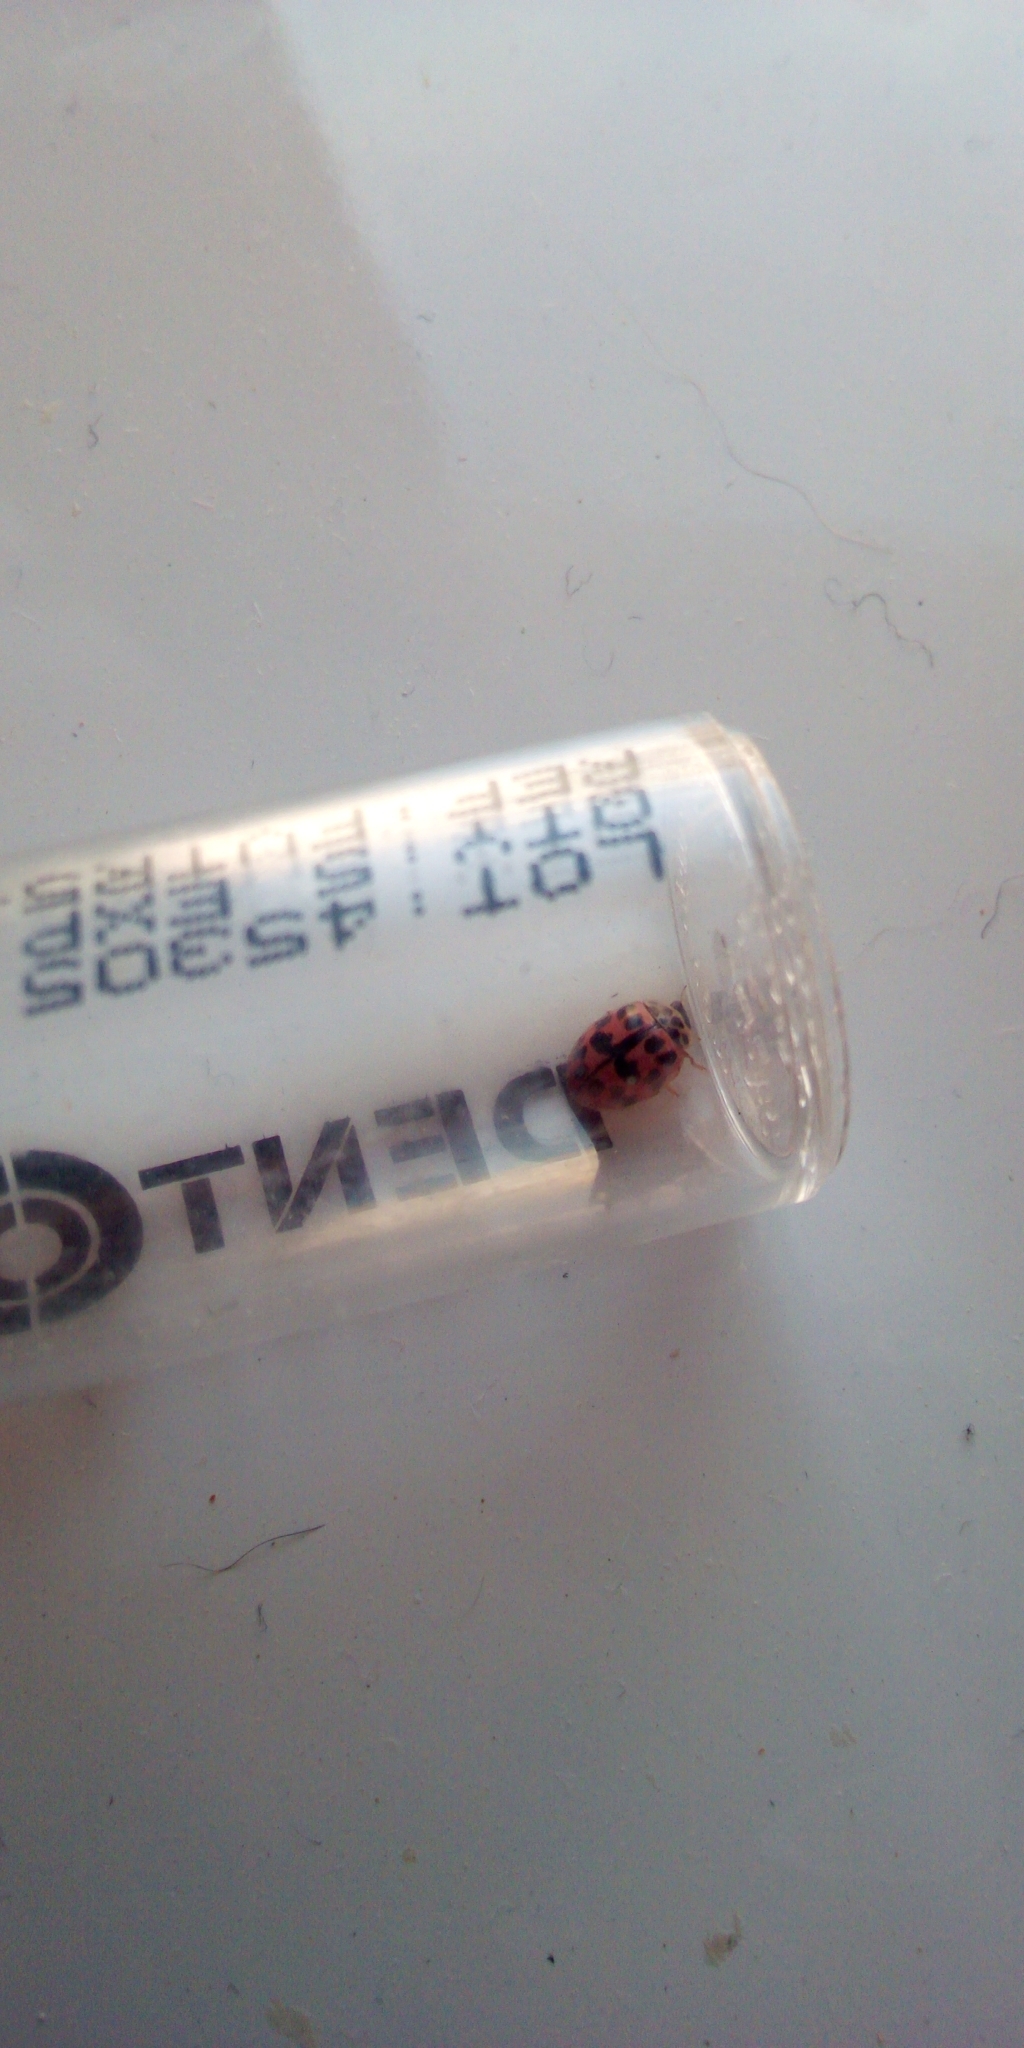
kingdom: Animalia
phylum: Arthropoda
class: Insecta
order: Coleoptera
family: Coccinellidae
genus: Oenopia
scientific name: Oenopia conglobata
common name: Ladybird beetle
